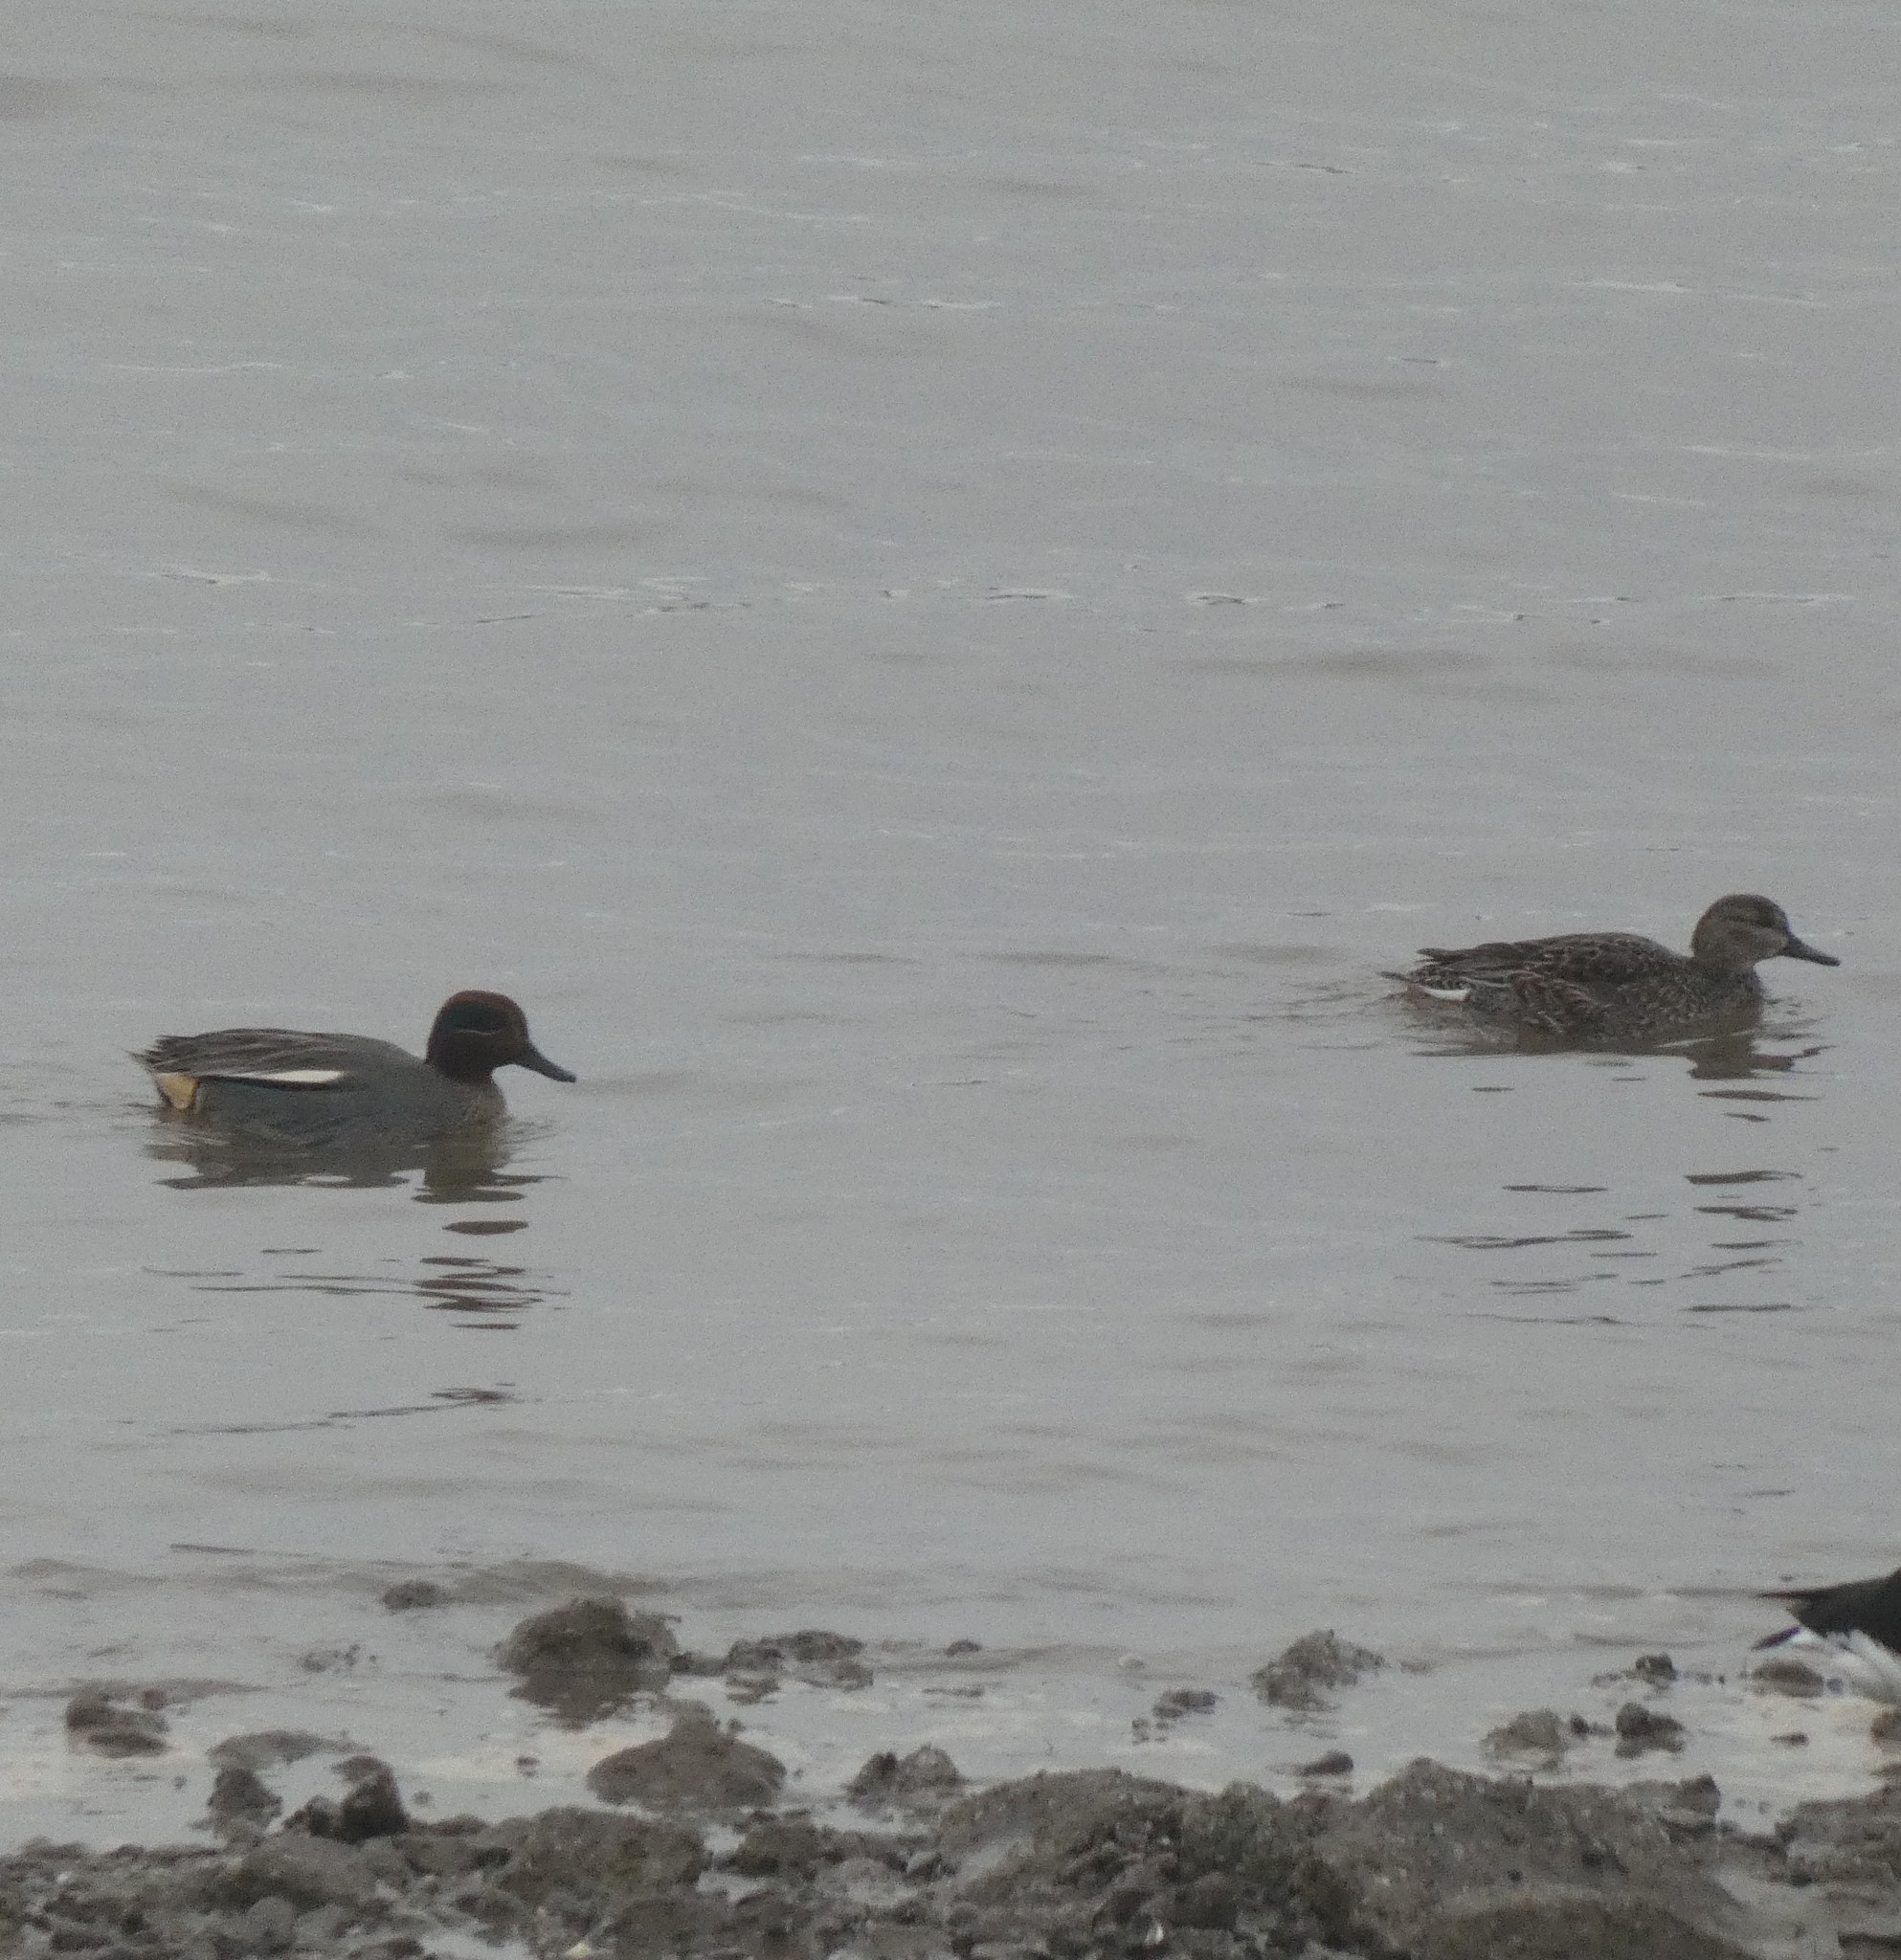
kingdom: Animalia
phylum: Chordata
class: Aves
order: Anseriformes
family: Anatidae
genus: Anas
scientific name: Anas crecca
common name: Eurasian teal
